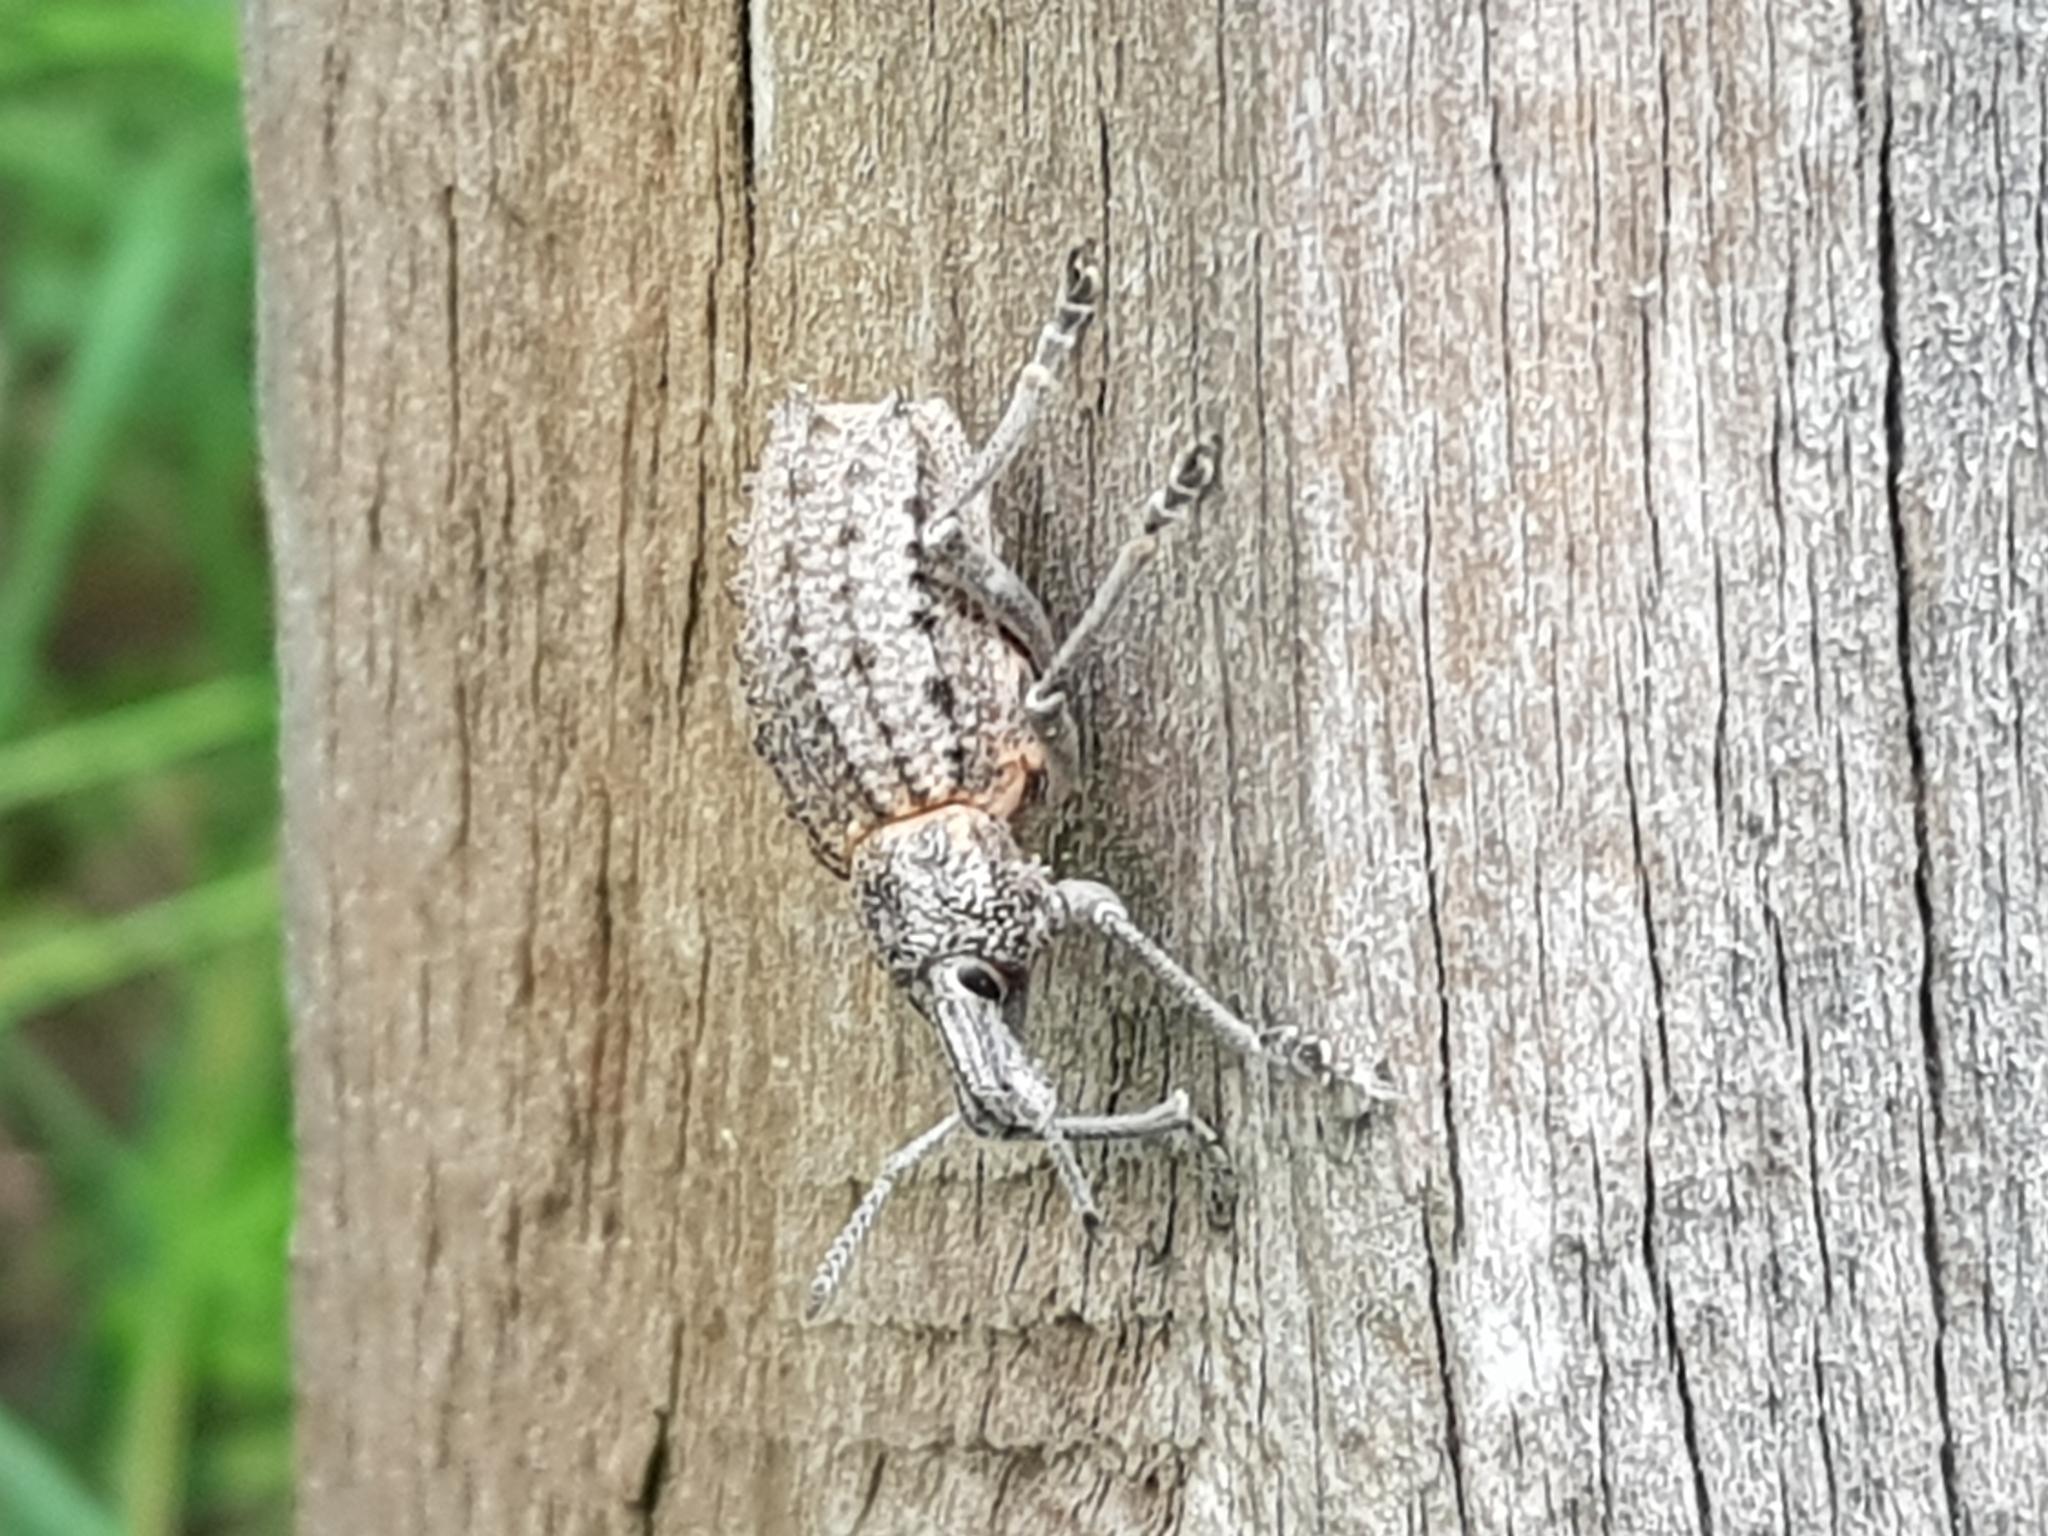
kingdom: Animalia
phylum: Arthropoda
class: Insecta
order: Coleoptera
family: Curculionidae
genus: Leptopius
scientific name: Leptopius duponti
